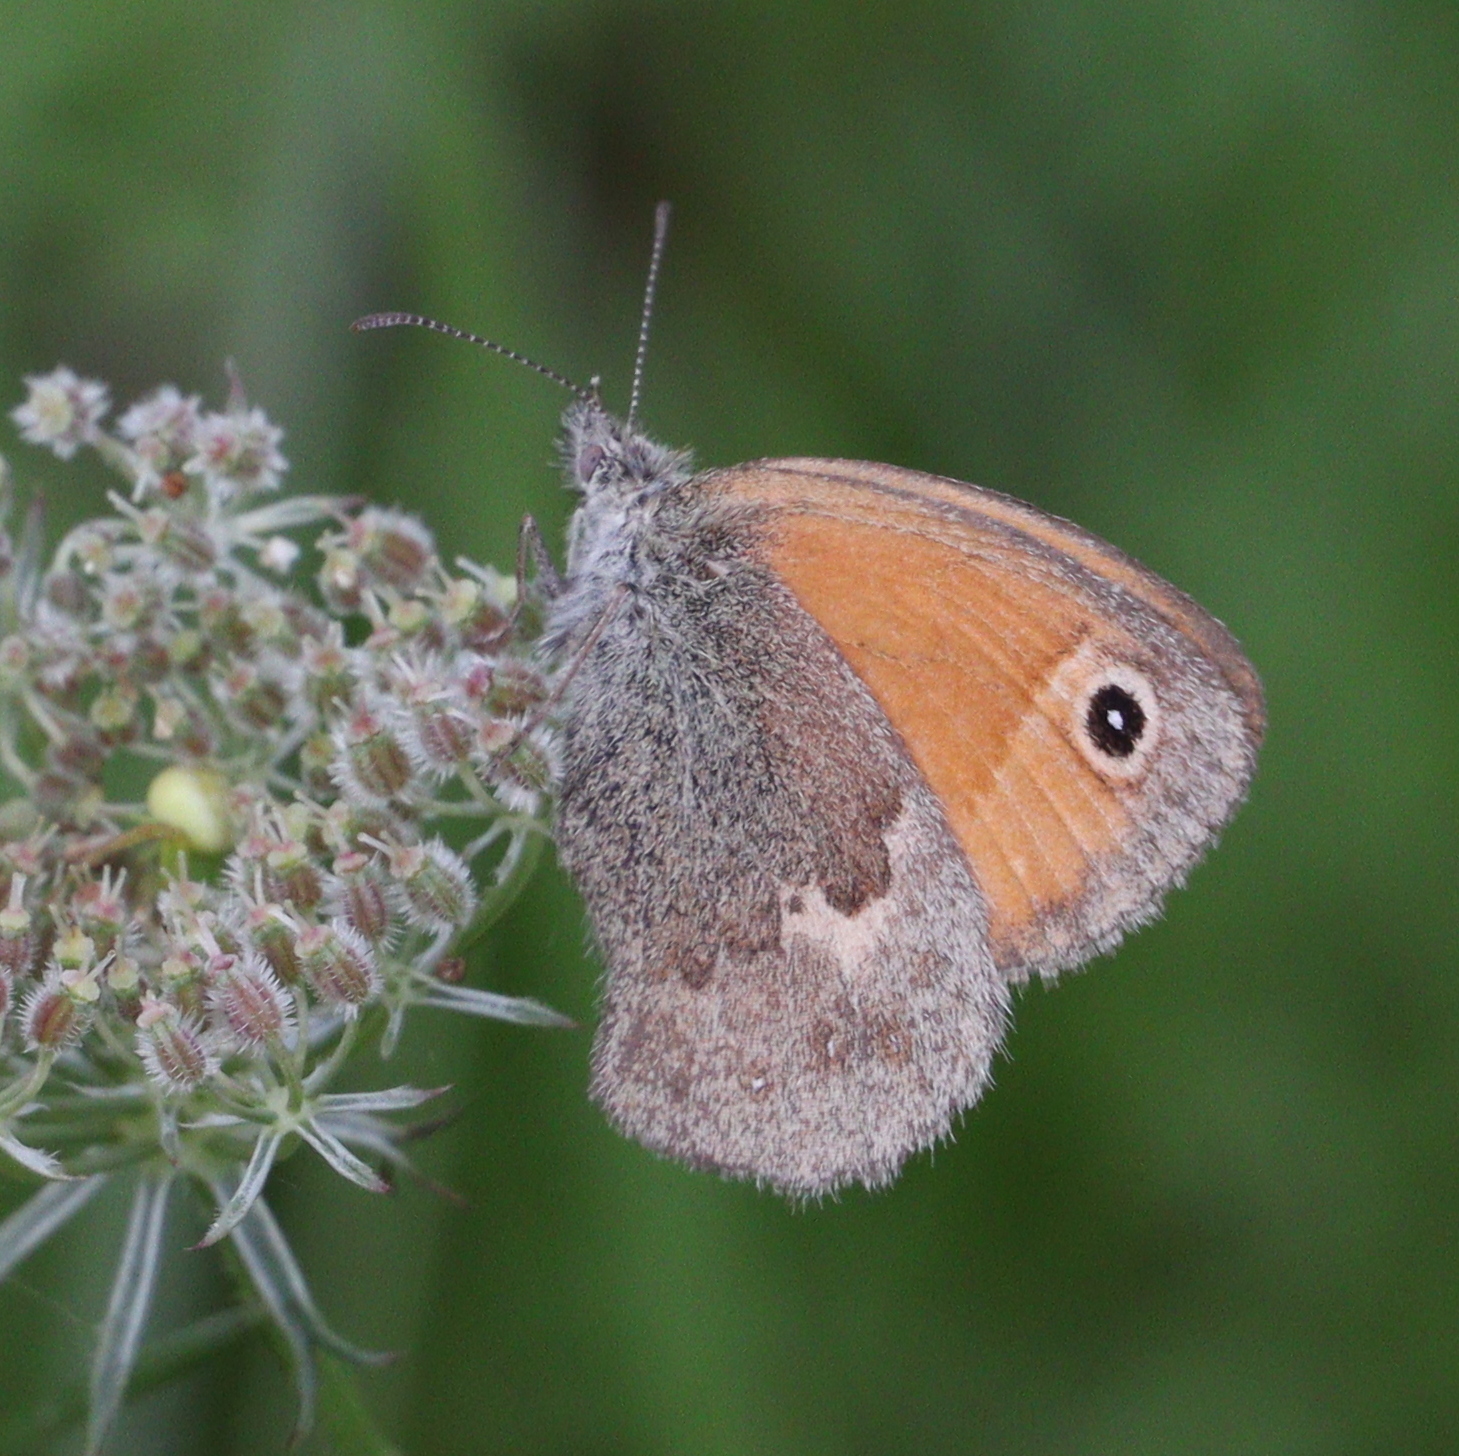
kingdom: Animalia
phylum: Arthropoda
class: Insecta
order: Lepidoptera
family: Nymphalidae
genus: Coenonympha
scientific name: Coenonympha pamphilus
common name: Small heath
